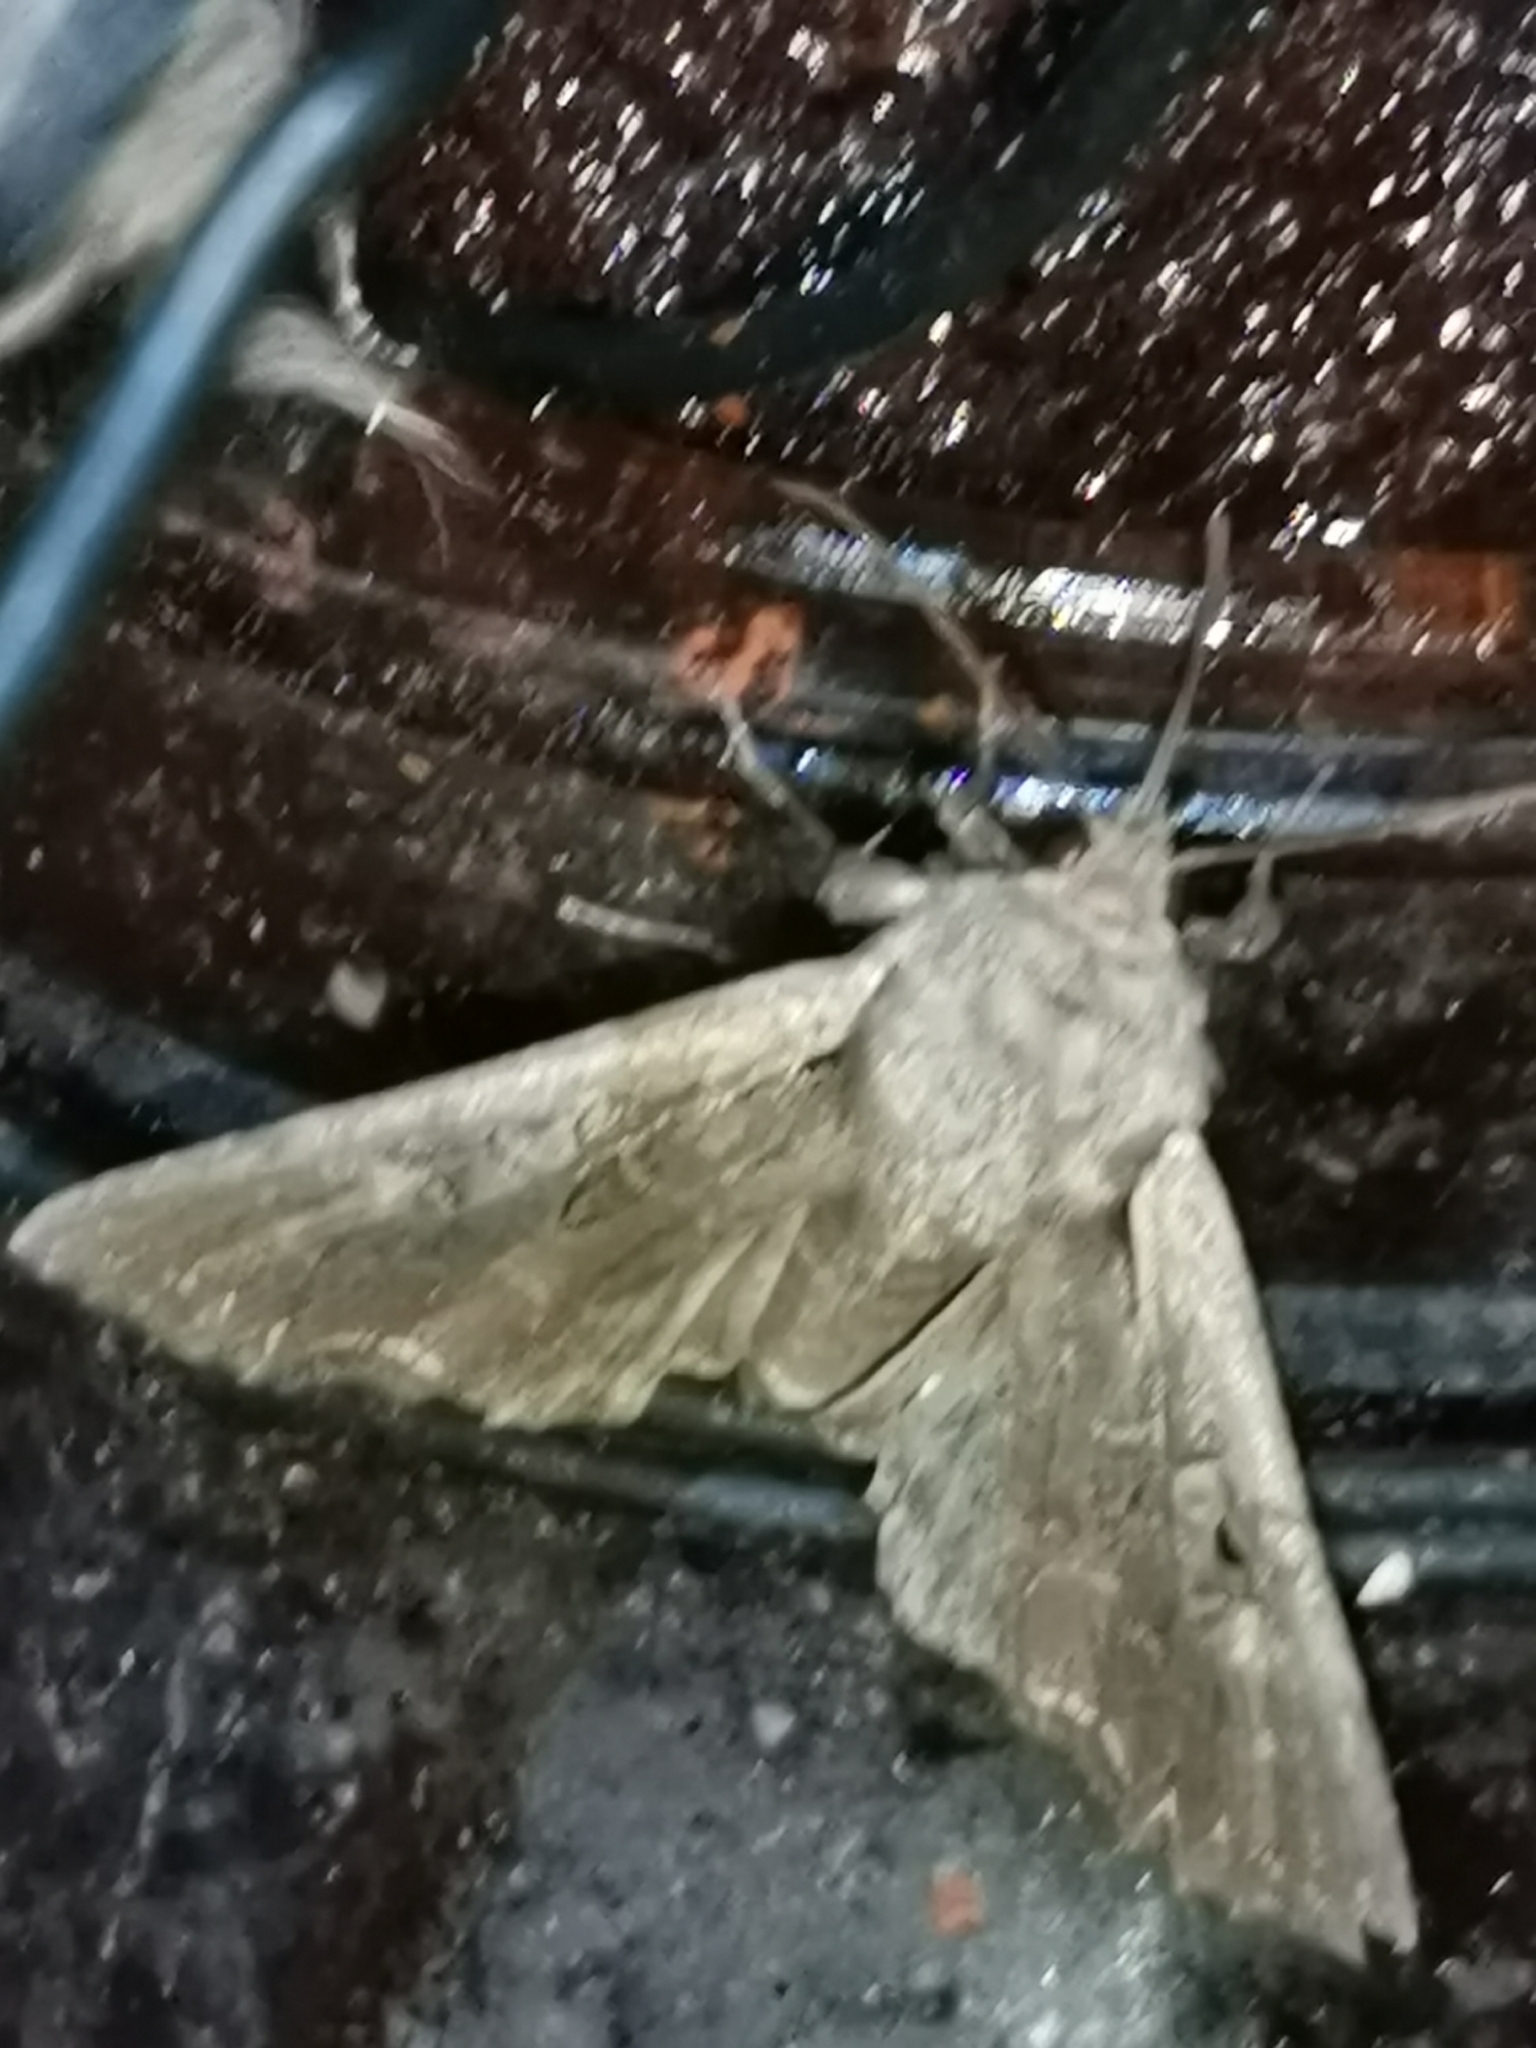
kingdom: Animalia
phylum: Arthropoda
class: Insecta
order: Lepidoptera
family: Noctuidae
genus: Lacanobia
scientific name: Lacanobia suasa
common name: Dog's tooth
